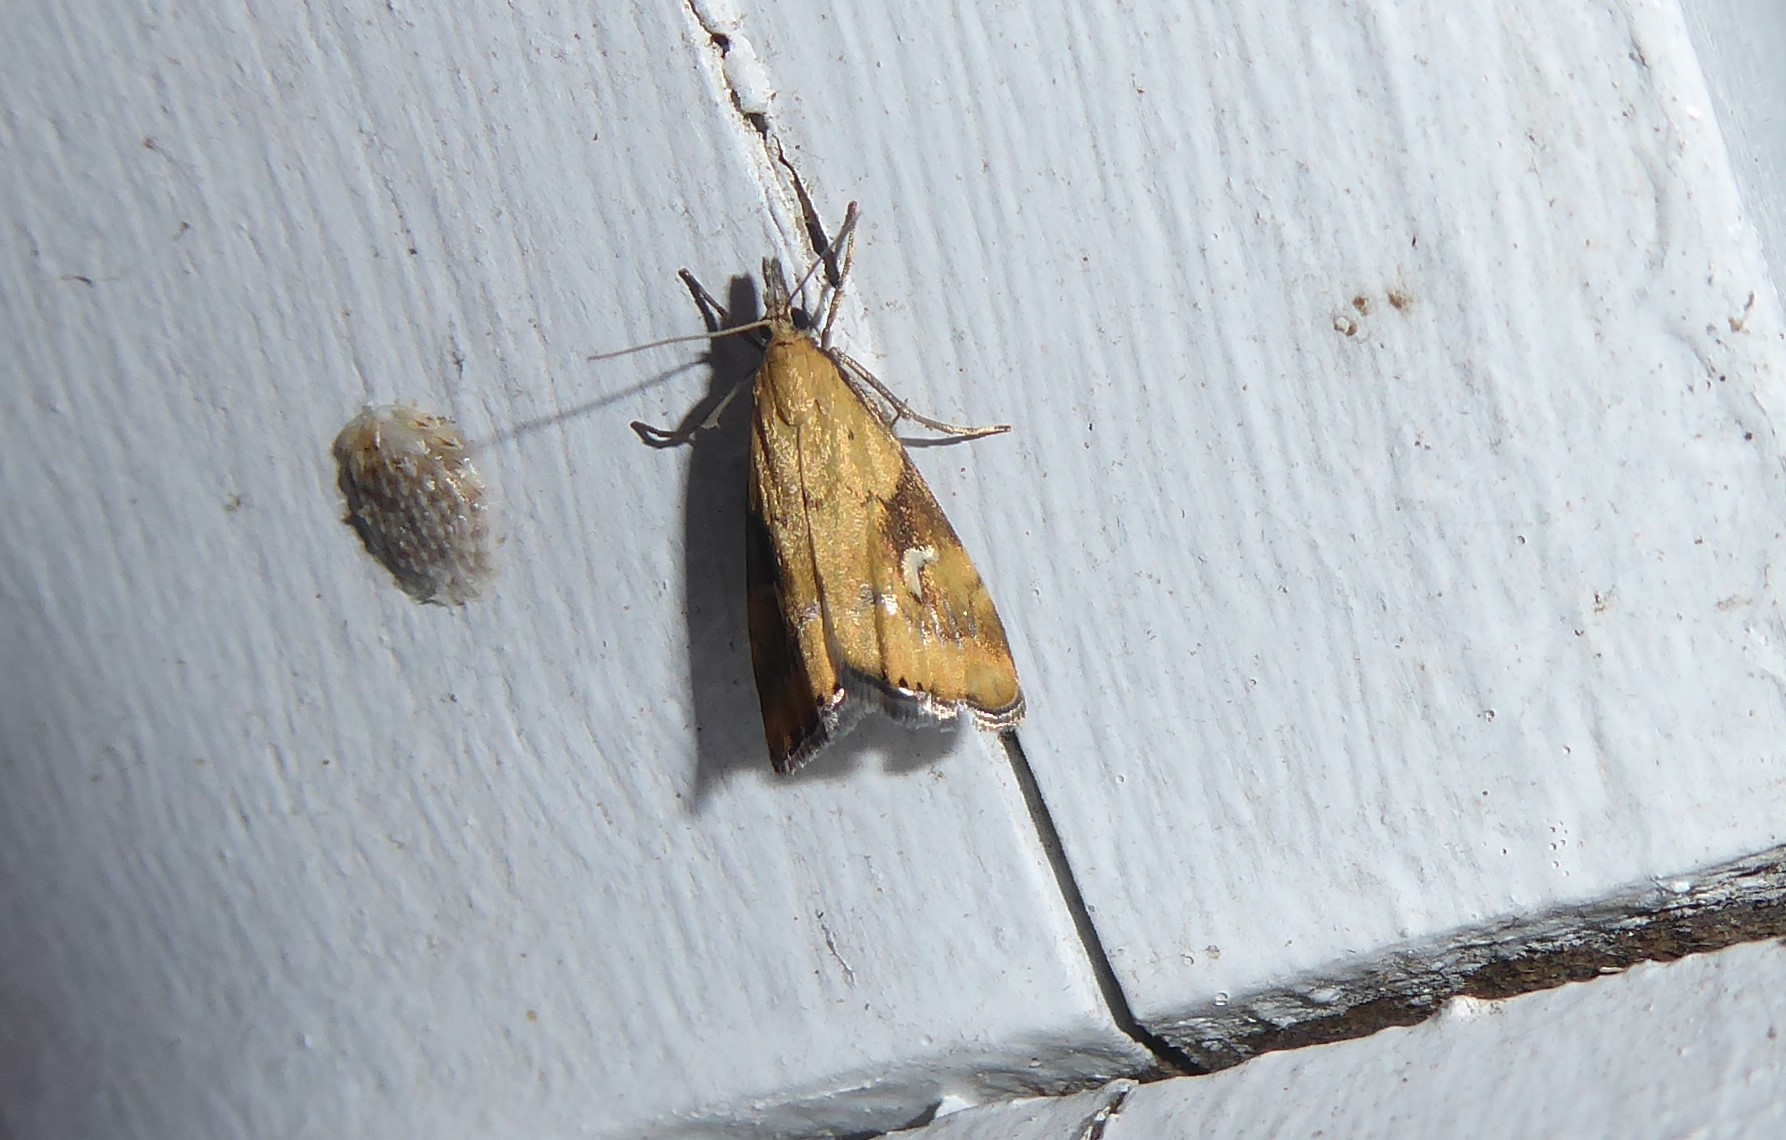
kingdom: Animalia
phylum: Arthropoda
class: Insecta
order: Lepidoptera
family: Crambidae
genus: Glaucocharis
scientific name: Glaucocharis lepidella
